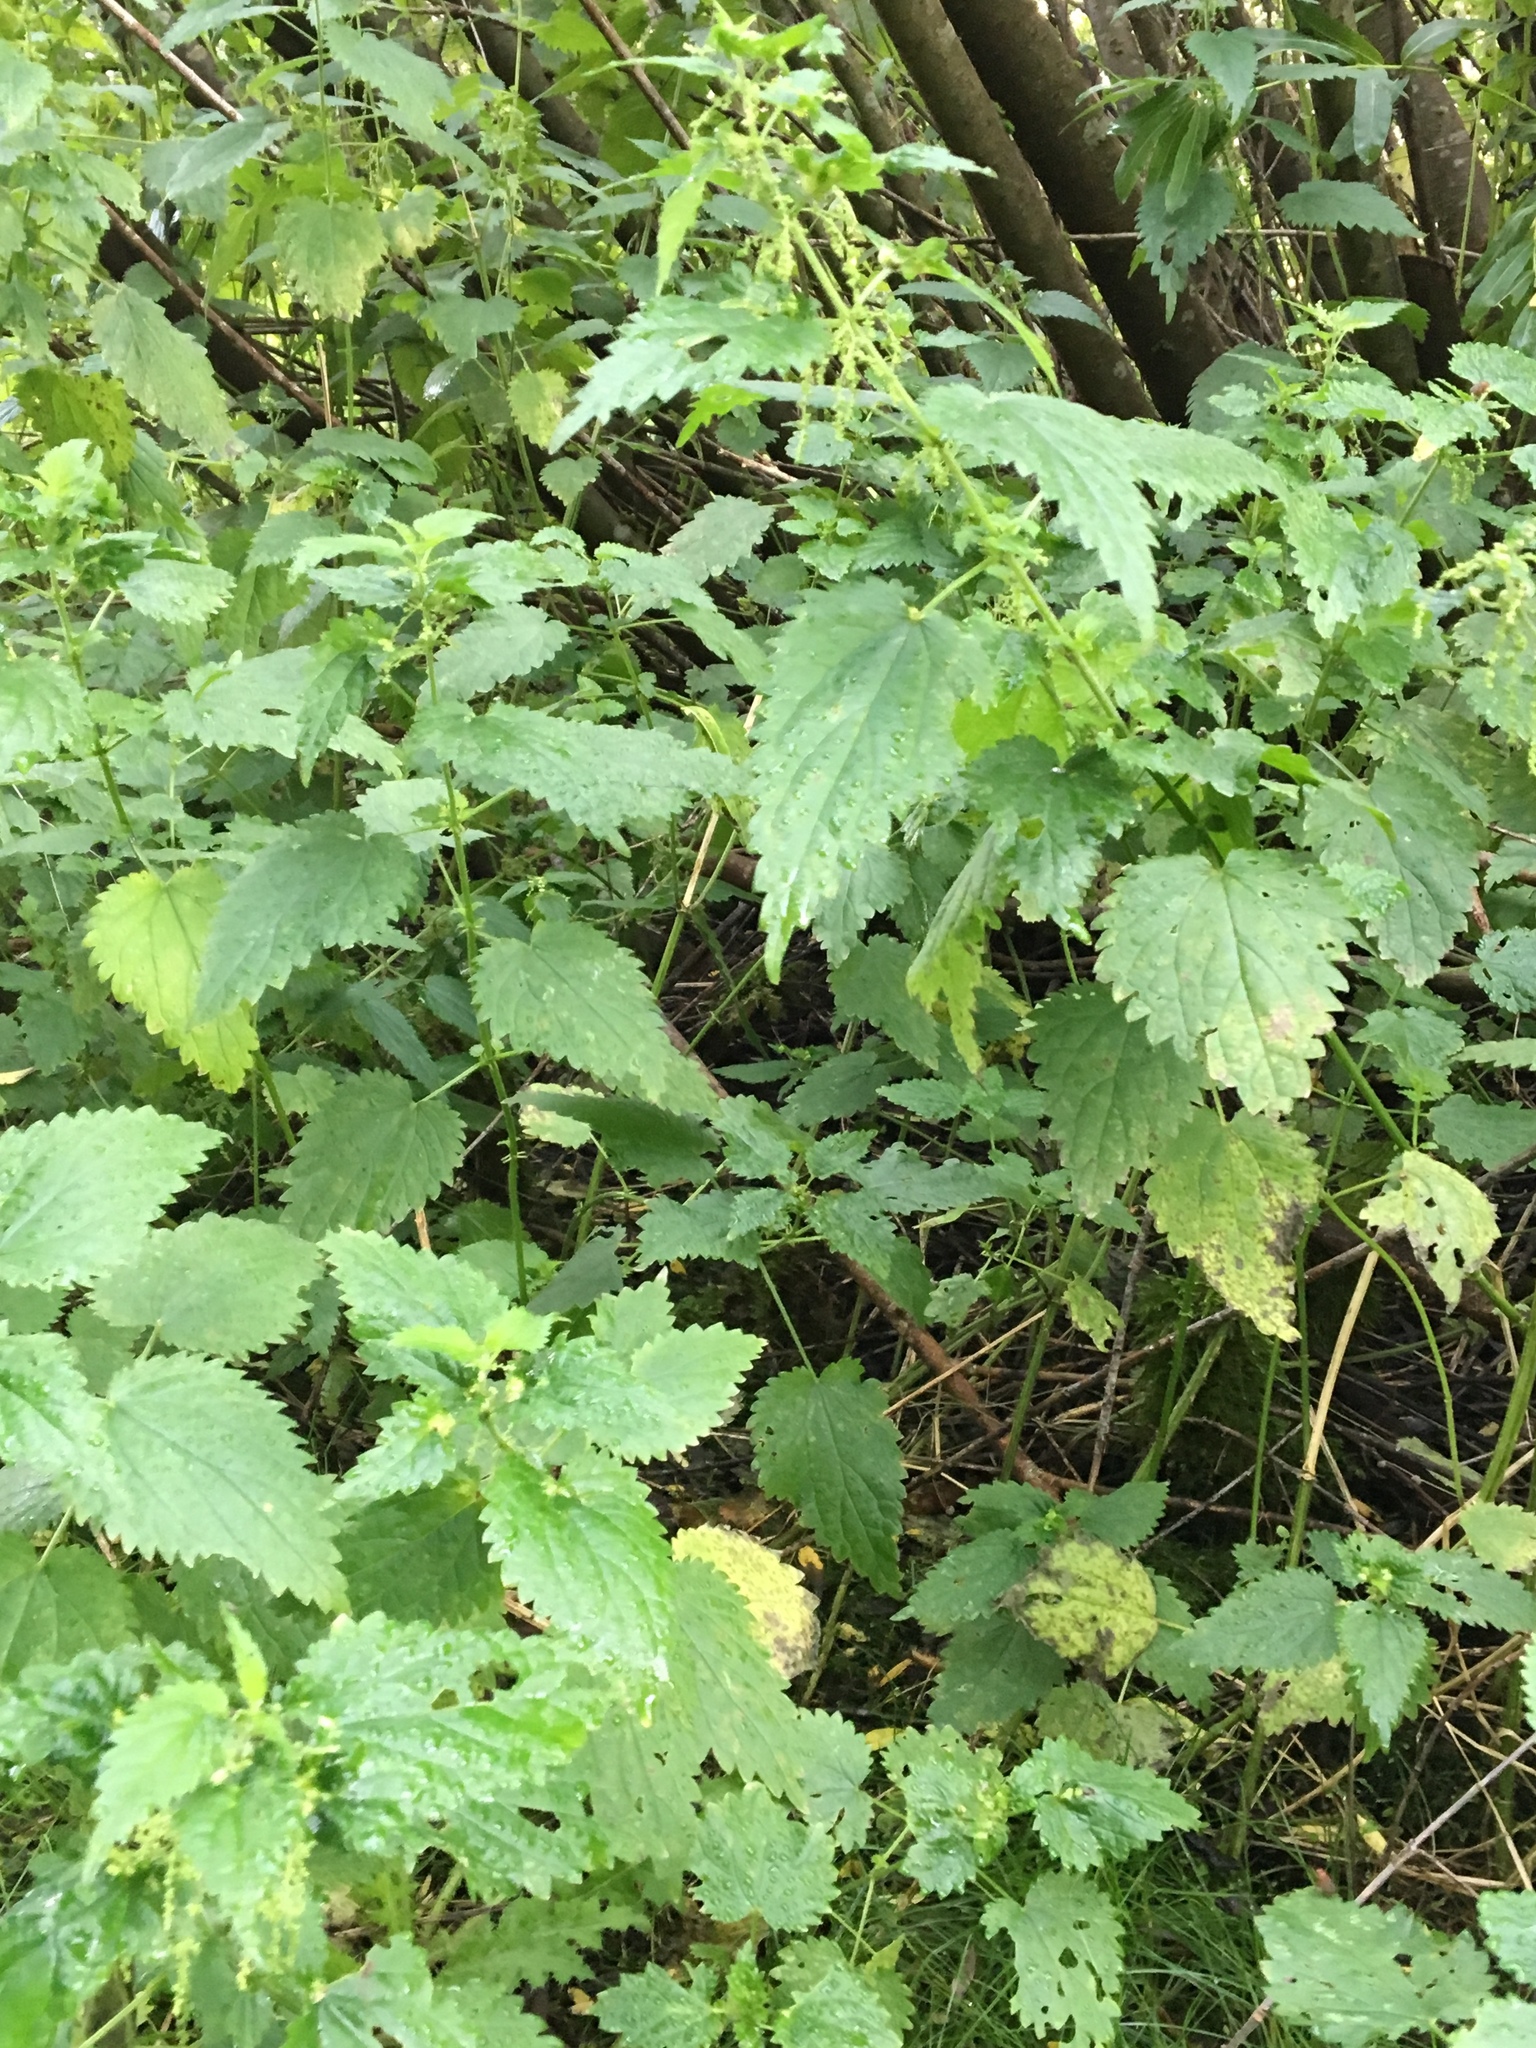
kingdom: Plantae
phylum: Tracheophyta
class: Magnoliopsida
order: Rosales
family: Urticaceae
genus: Urtica
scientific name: Urtica dioica
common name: Common nettle
